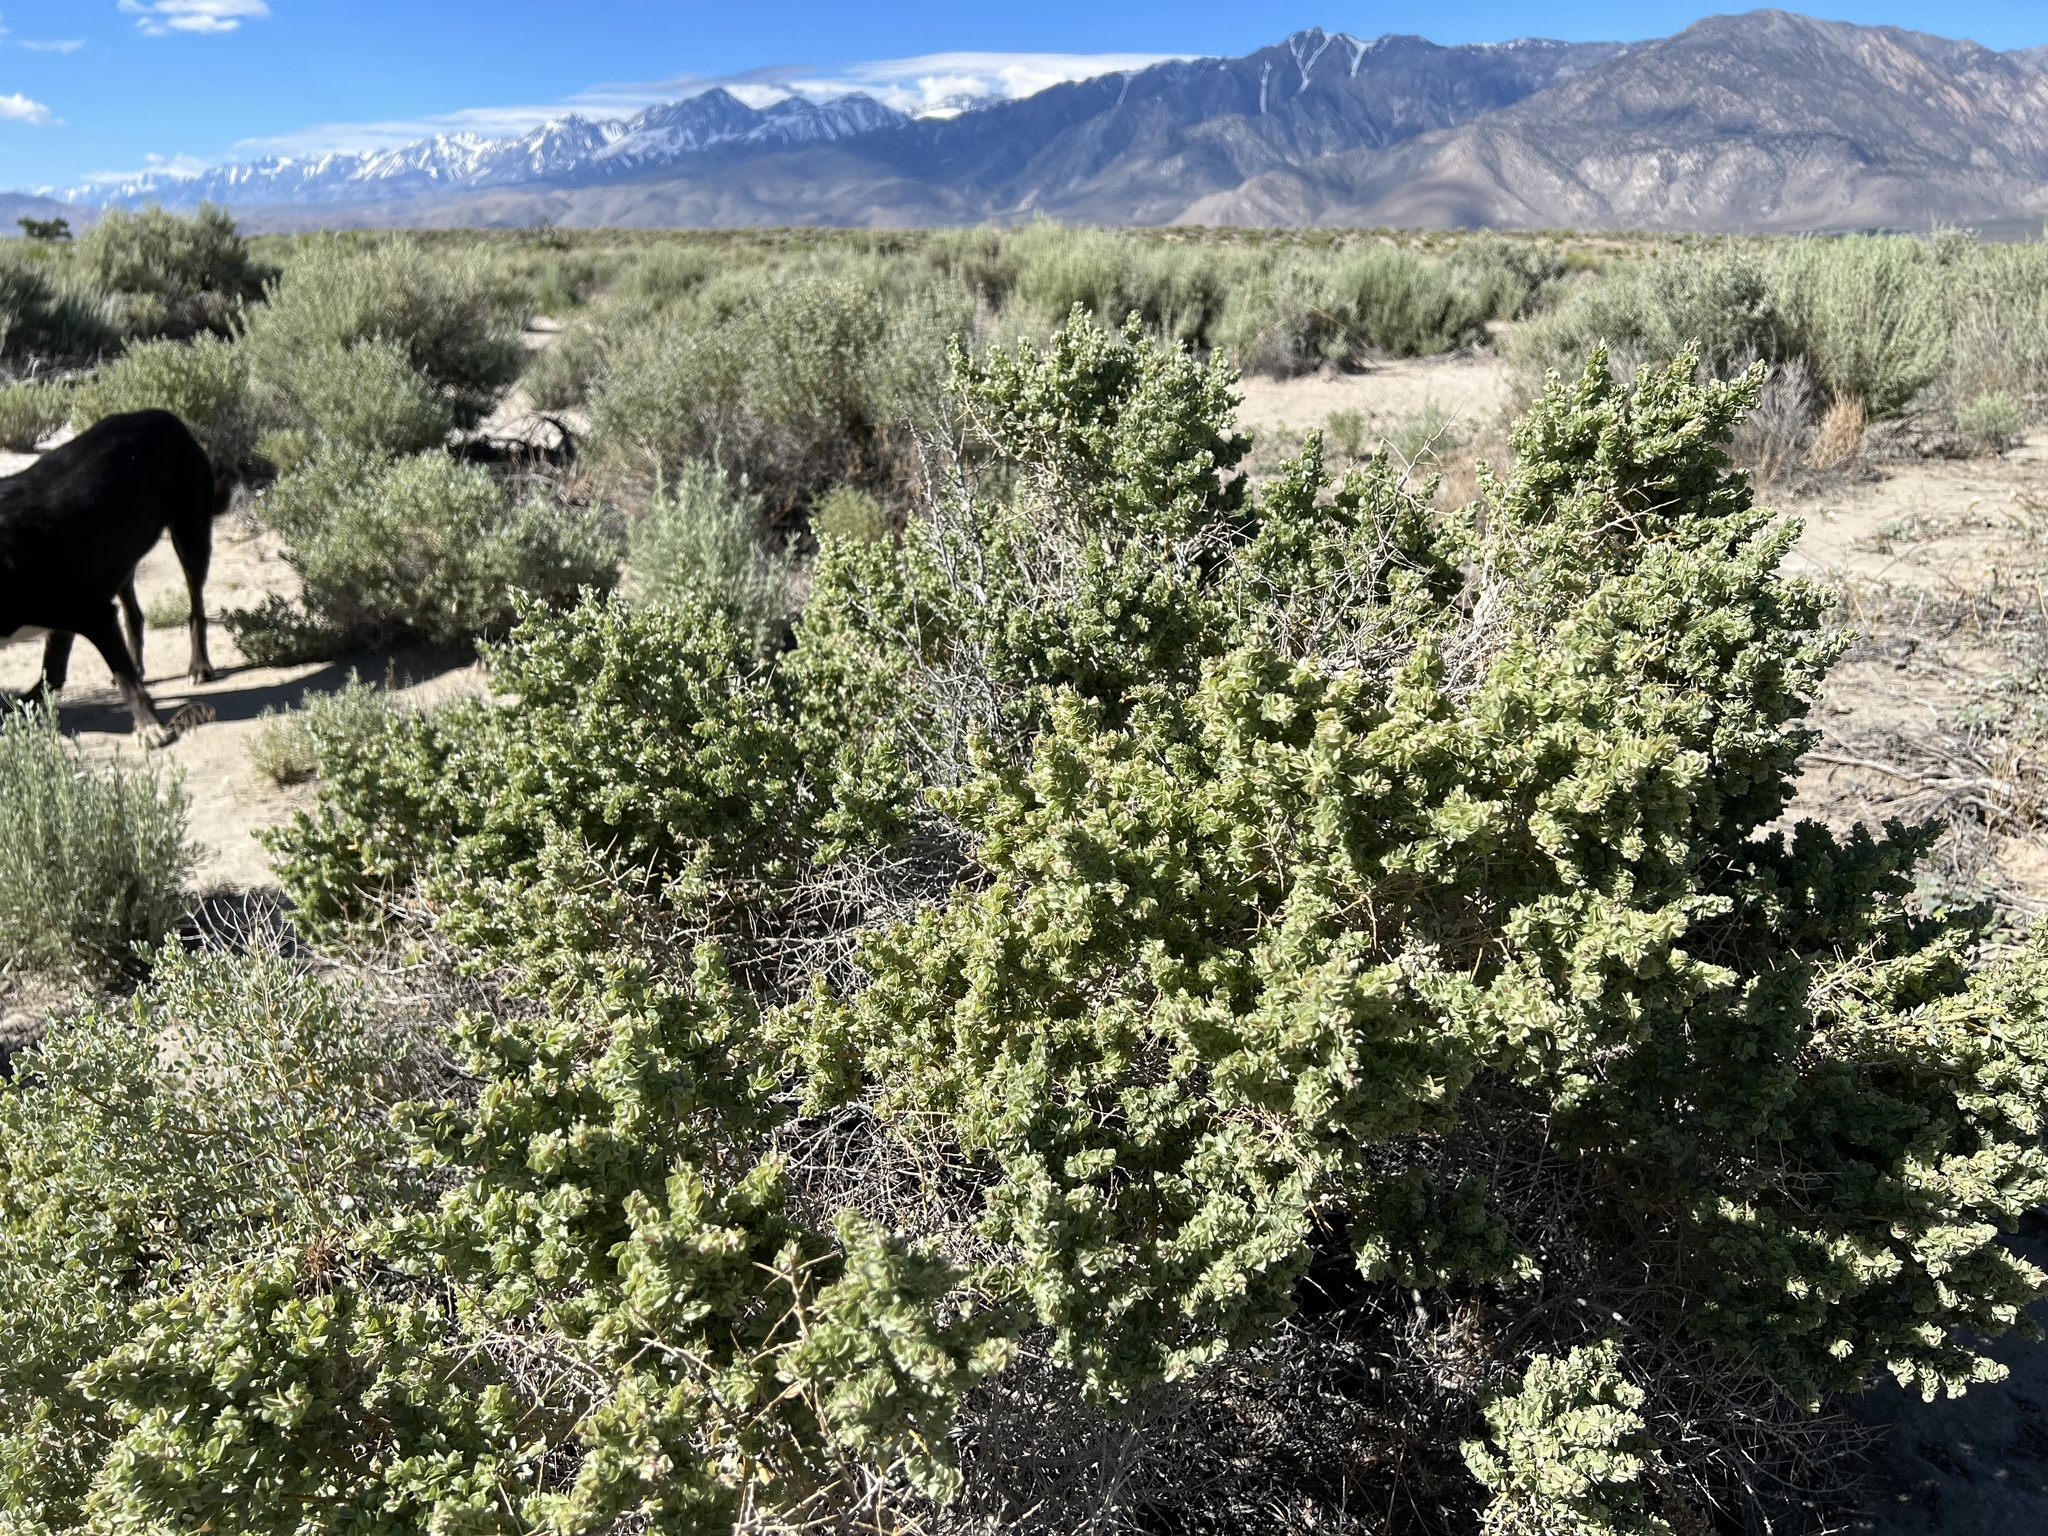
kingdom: Plantae
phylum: Tracheophyta
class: Magnoliopsida
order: Caryophyllales
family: Amaranthaceae
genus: Atriplex
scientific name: Atriplex confertifolia
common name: Shadscale
